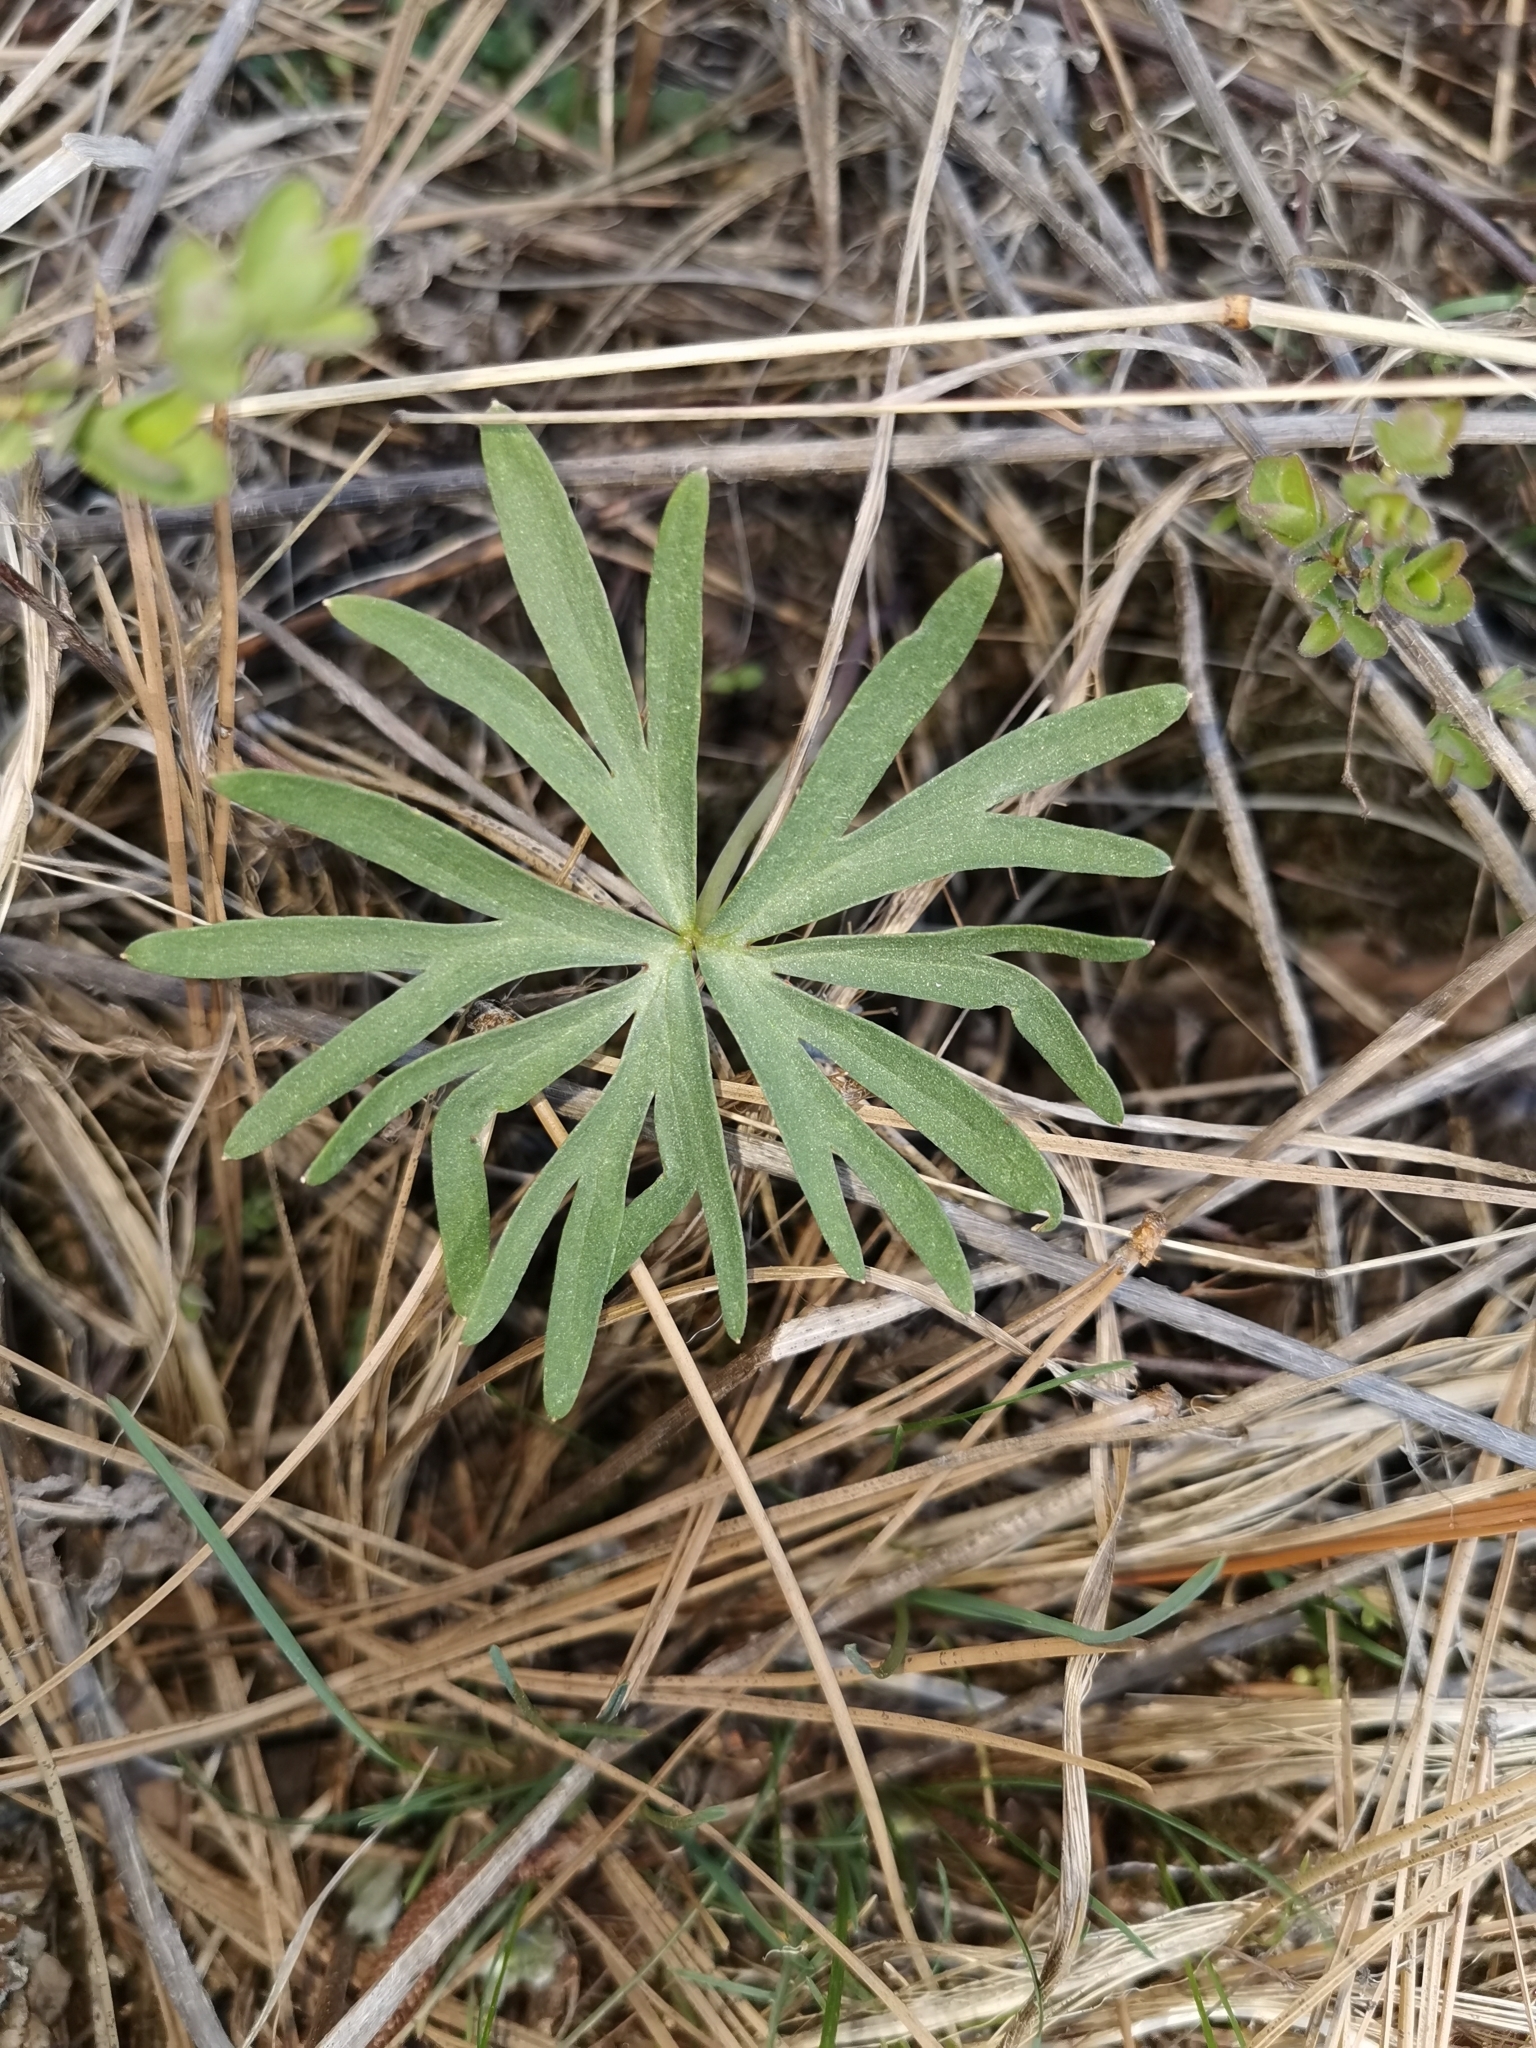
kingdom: Plantae
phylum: Tracheophyta
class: Magnoliopsida
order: Ranunculales
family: Ranunculaceae
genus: Delphinium
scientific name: Delphinium nuttallianum
